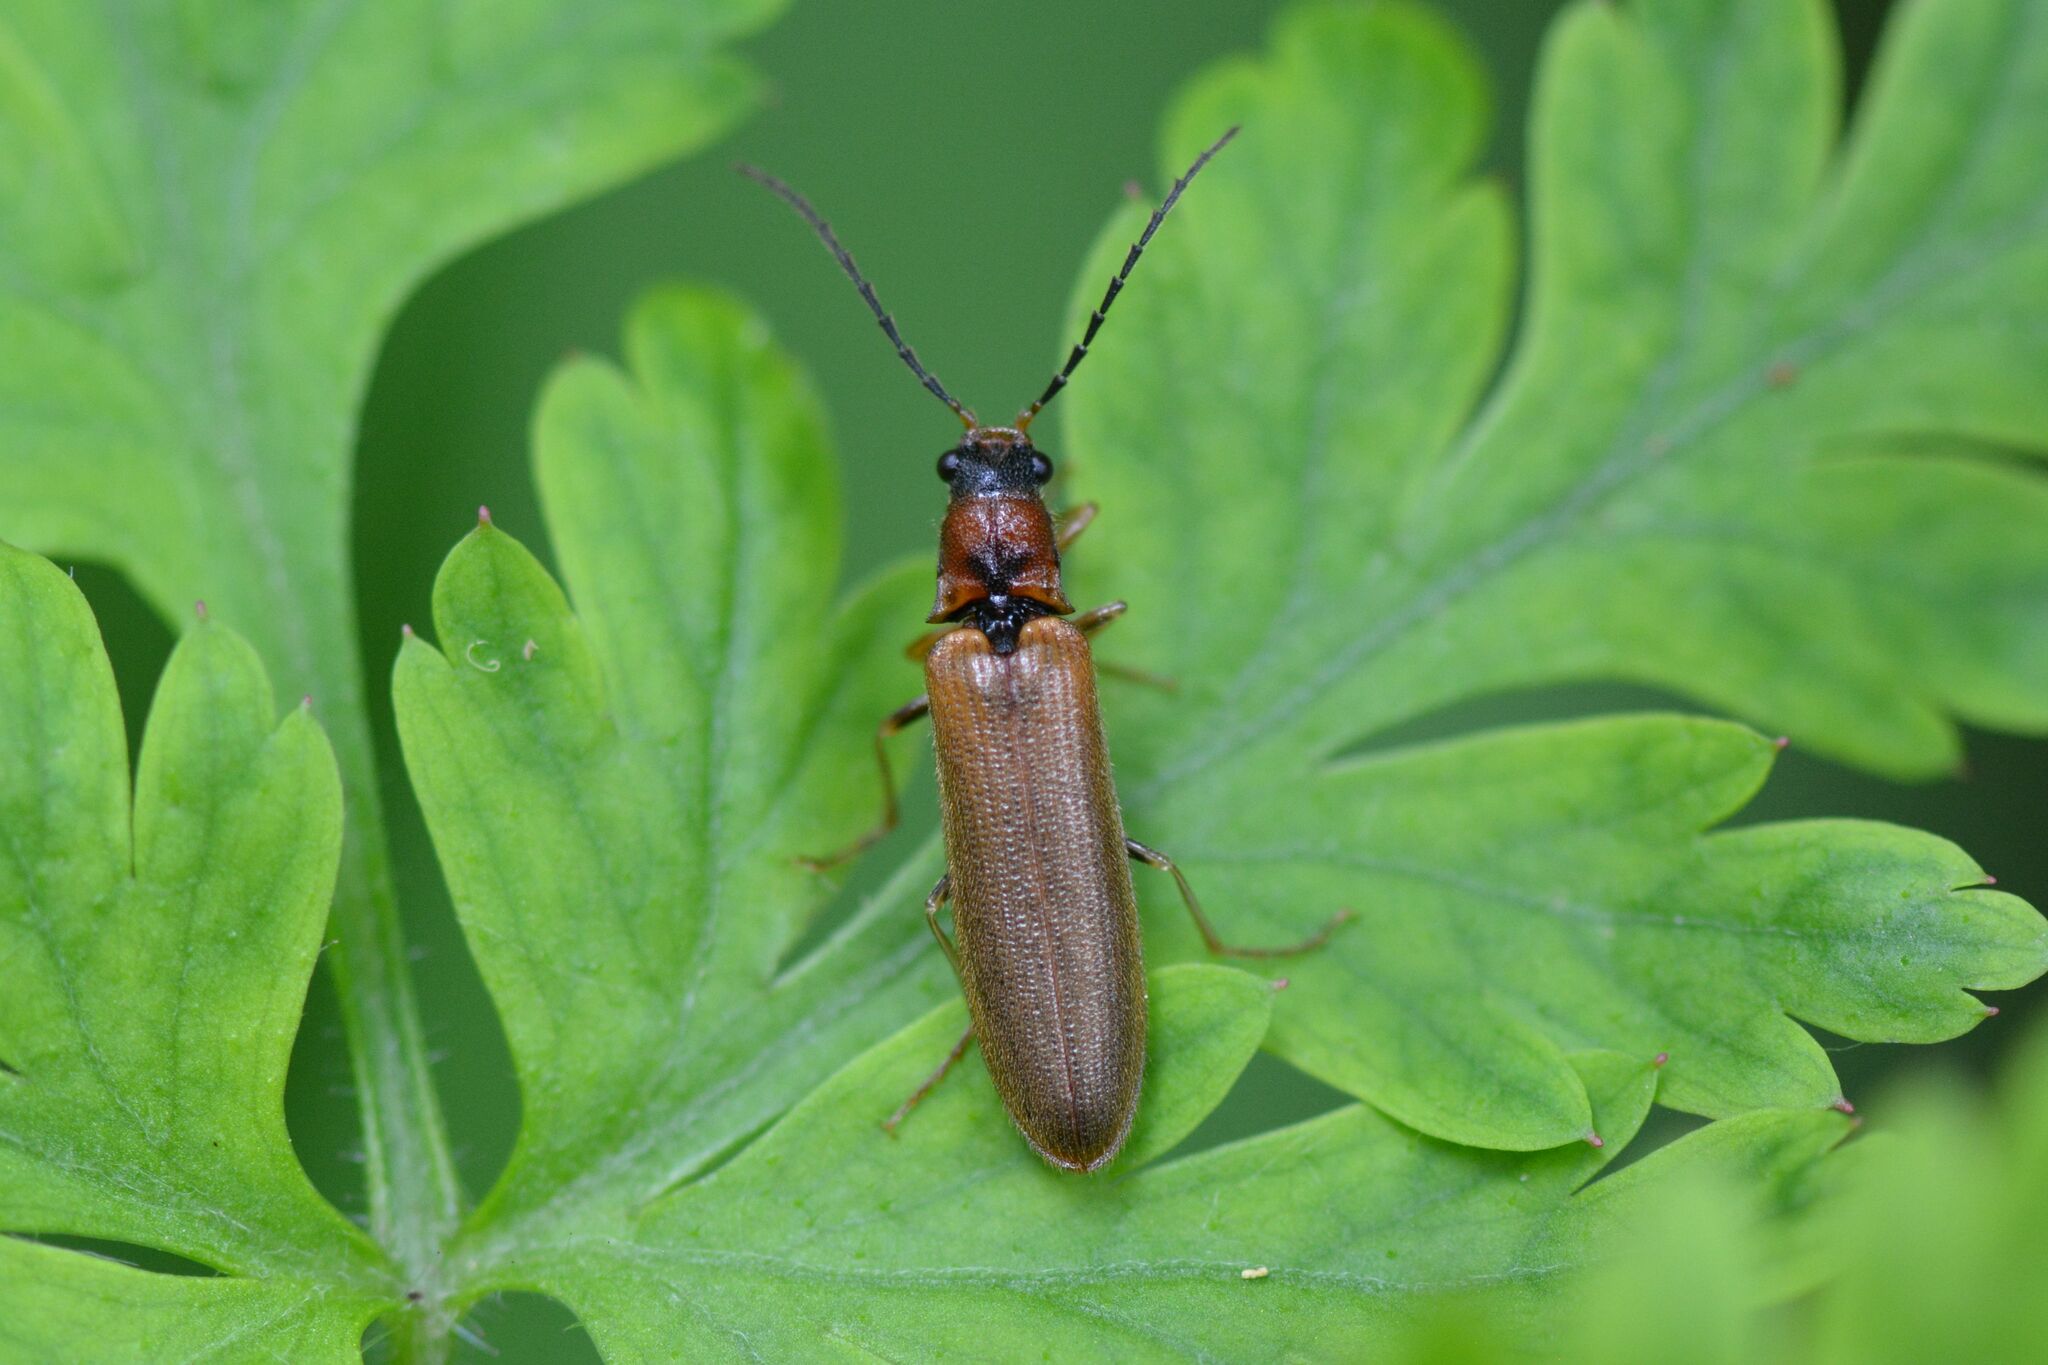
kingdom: Animalia
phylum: Arthropoda
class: Insecta
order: Coleoptera
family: Elateridae
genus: Denticollis
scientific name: Denticollis linearis
